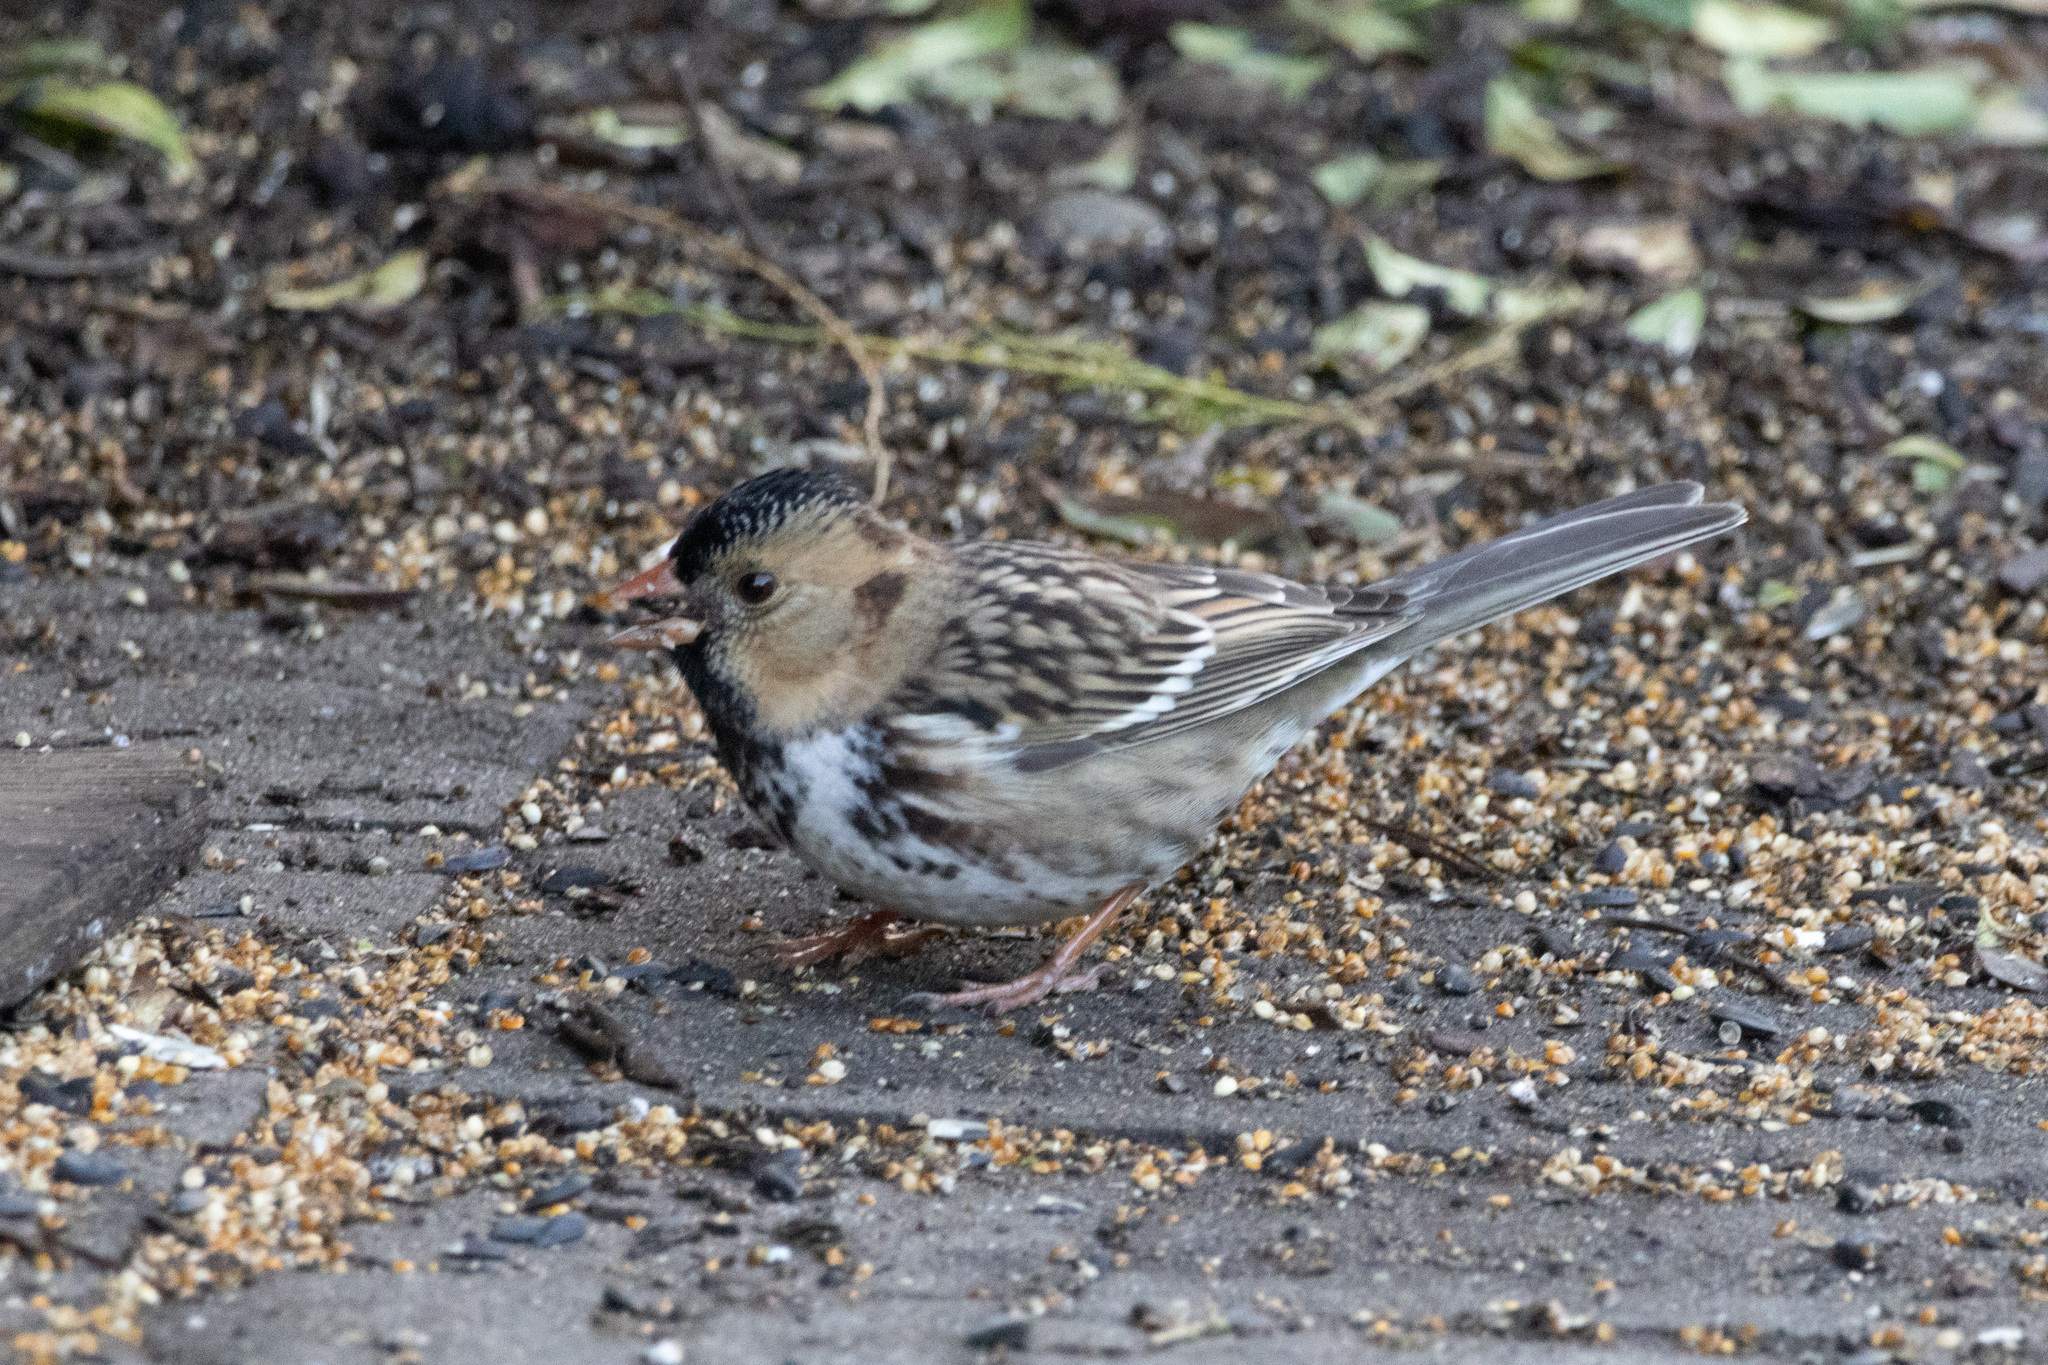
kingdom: Animalia
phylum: Chordata
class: Aves
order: Passeriformes
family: Passerellidae
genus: Zonotrichia
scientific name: Zonotrichia querula
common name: Harris's sparrow
